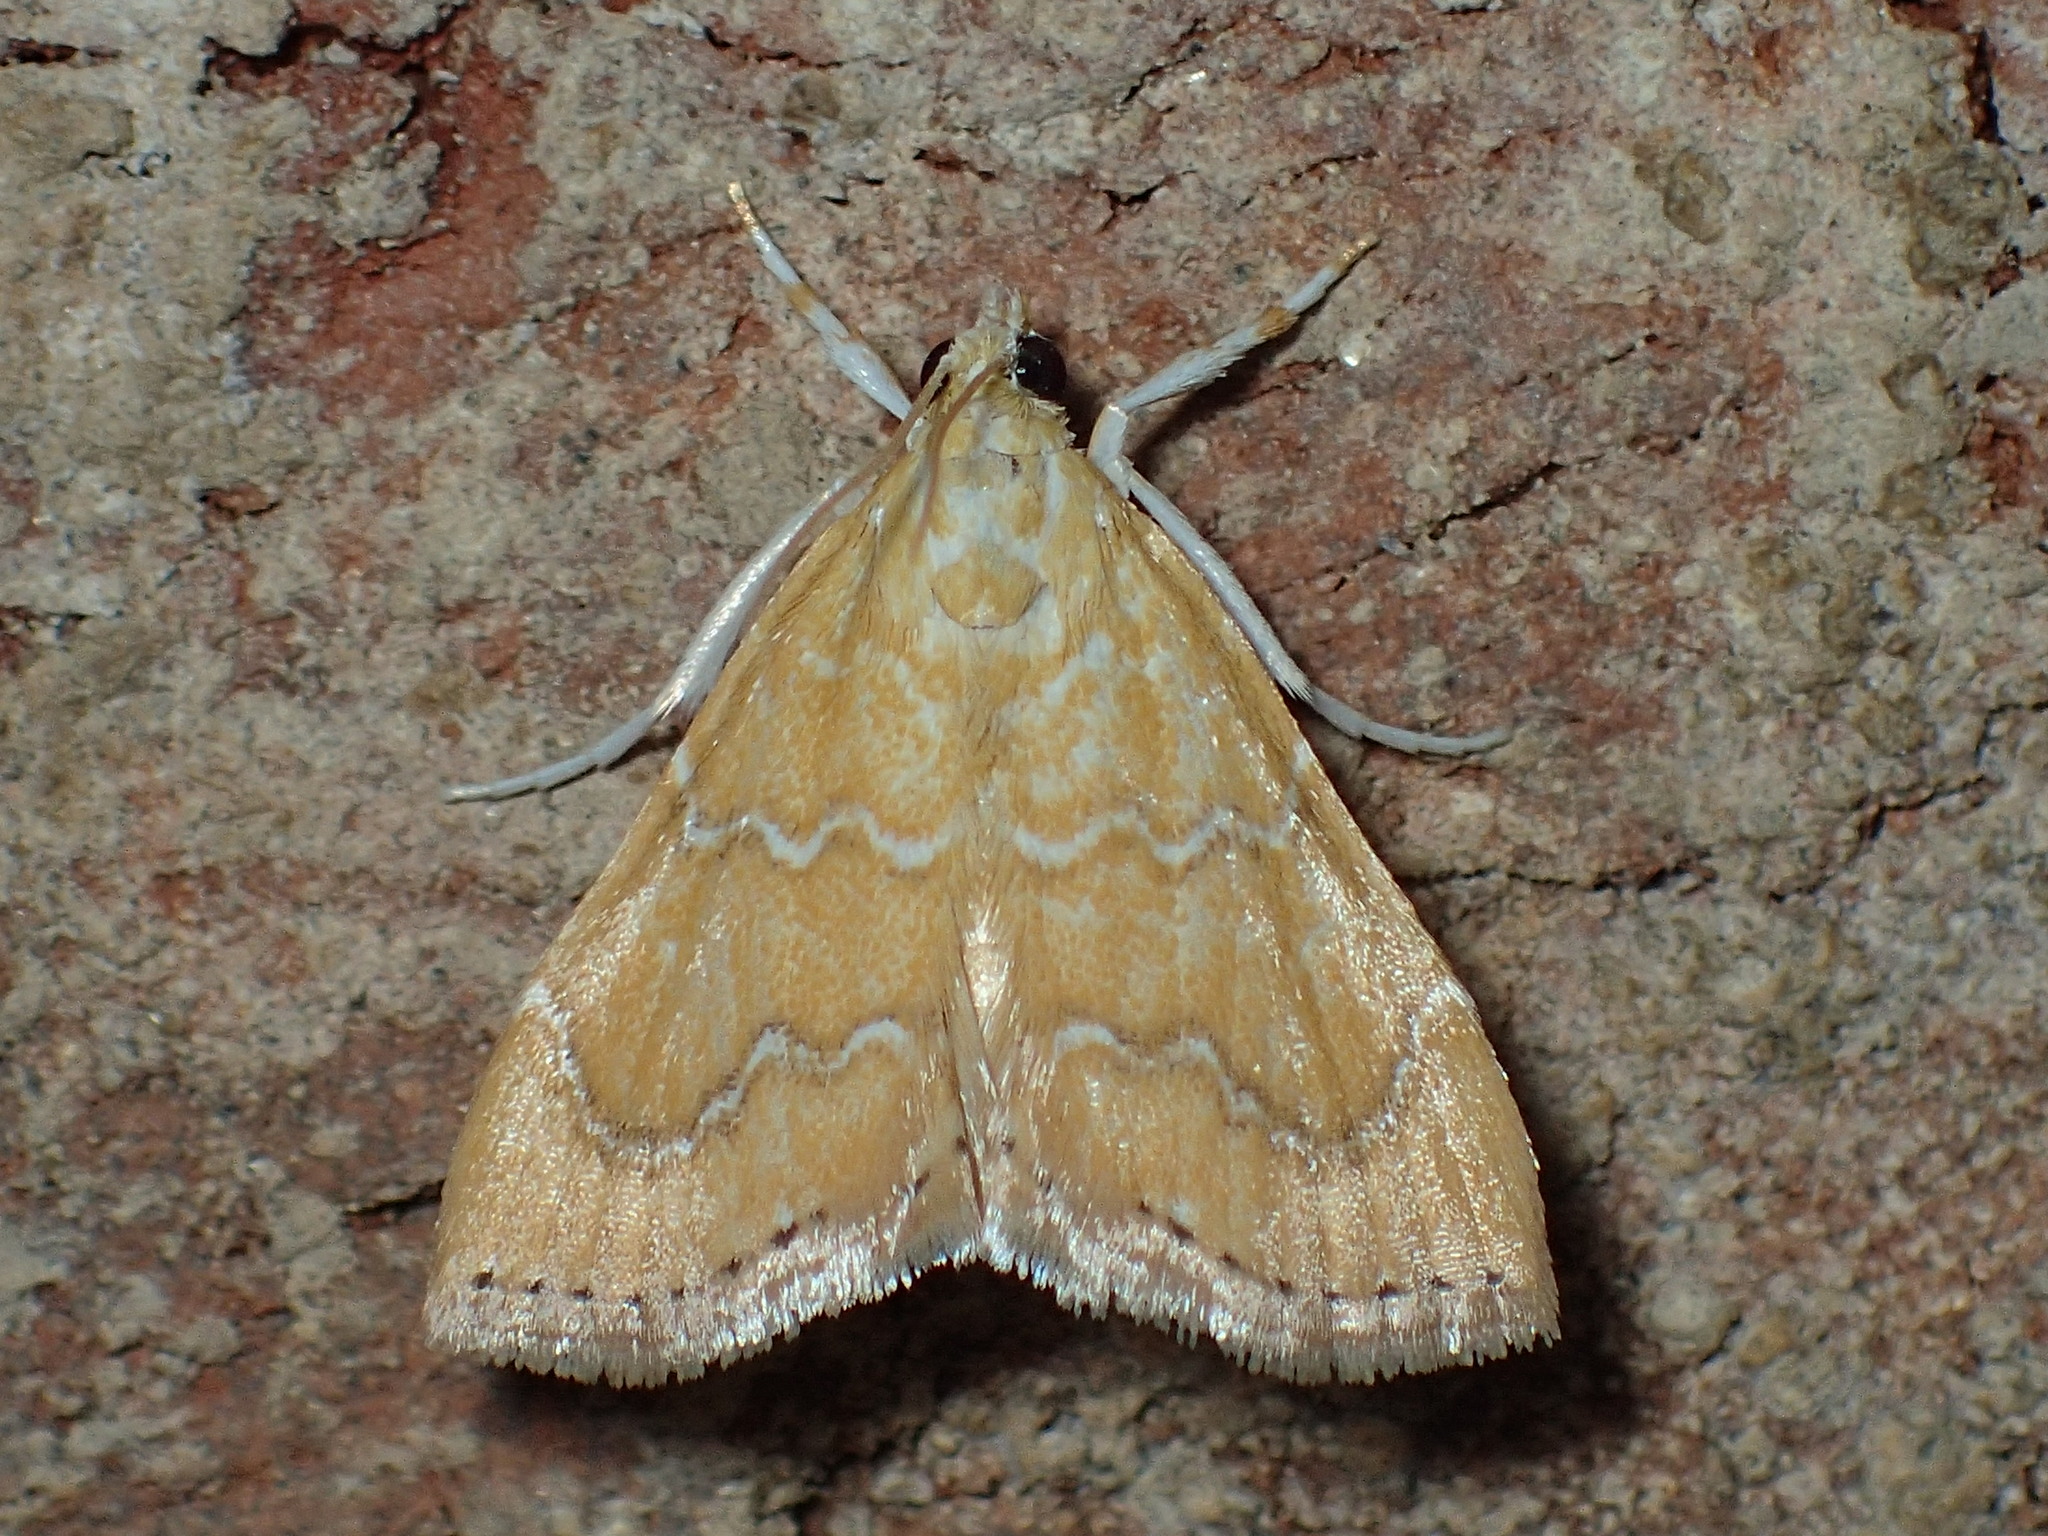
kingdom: Animalia
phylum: Arthropoda
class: Insecta
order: Lepidoptera
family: Crambidae
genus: Glaphyria
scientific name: Glaphyria sesquistrialis
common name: White-roped glaphyria
